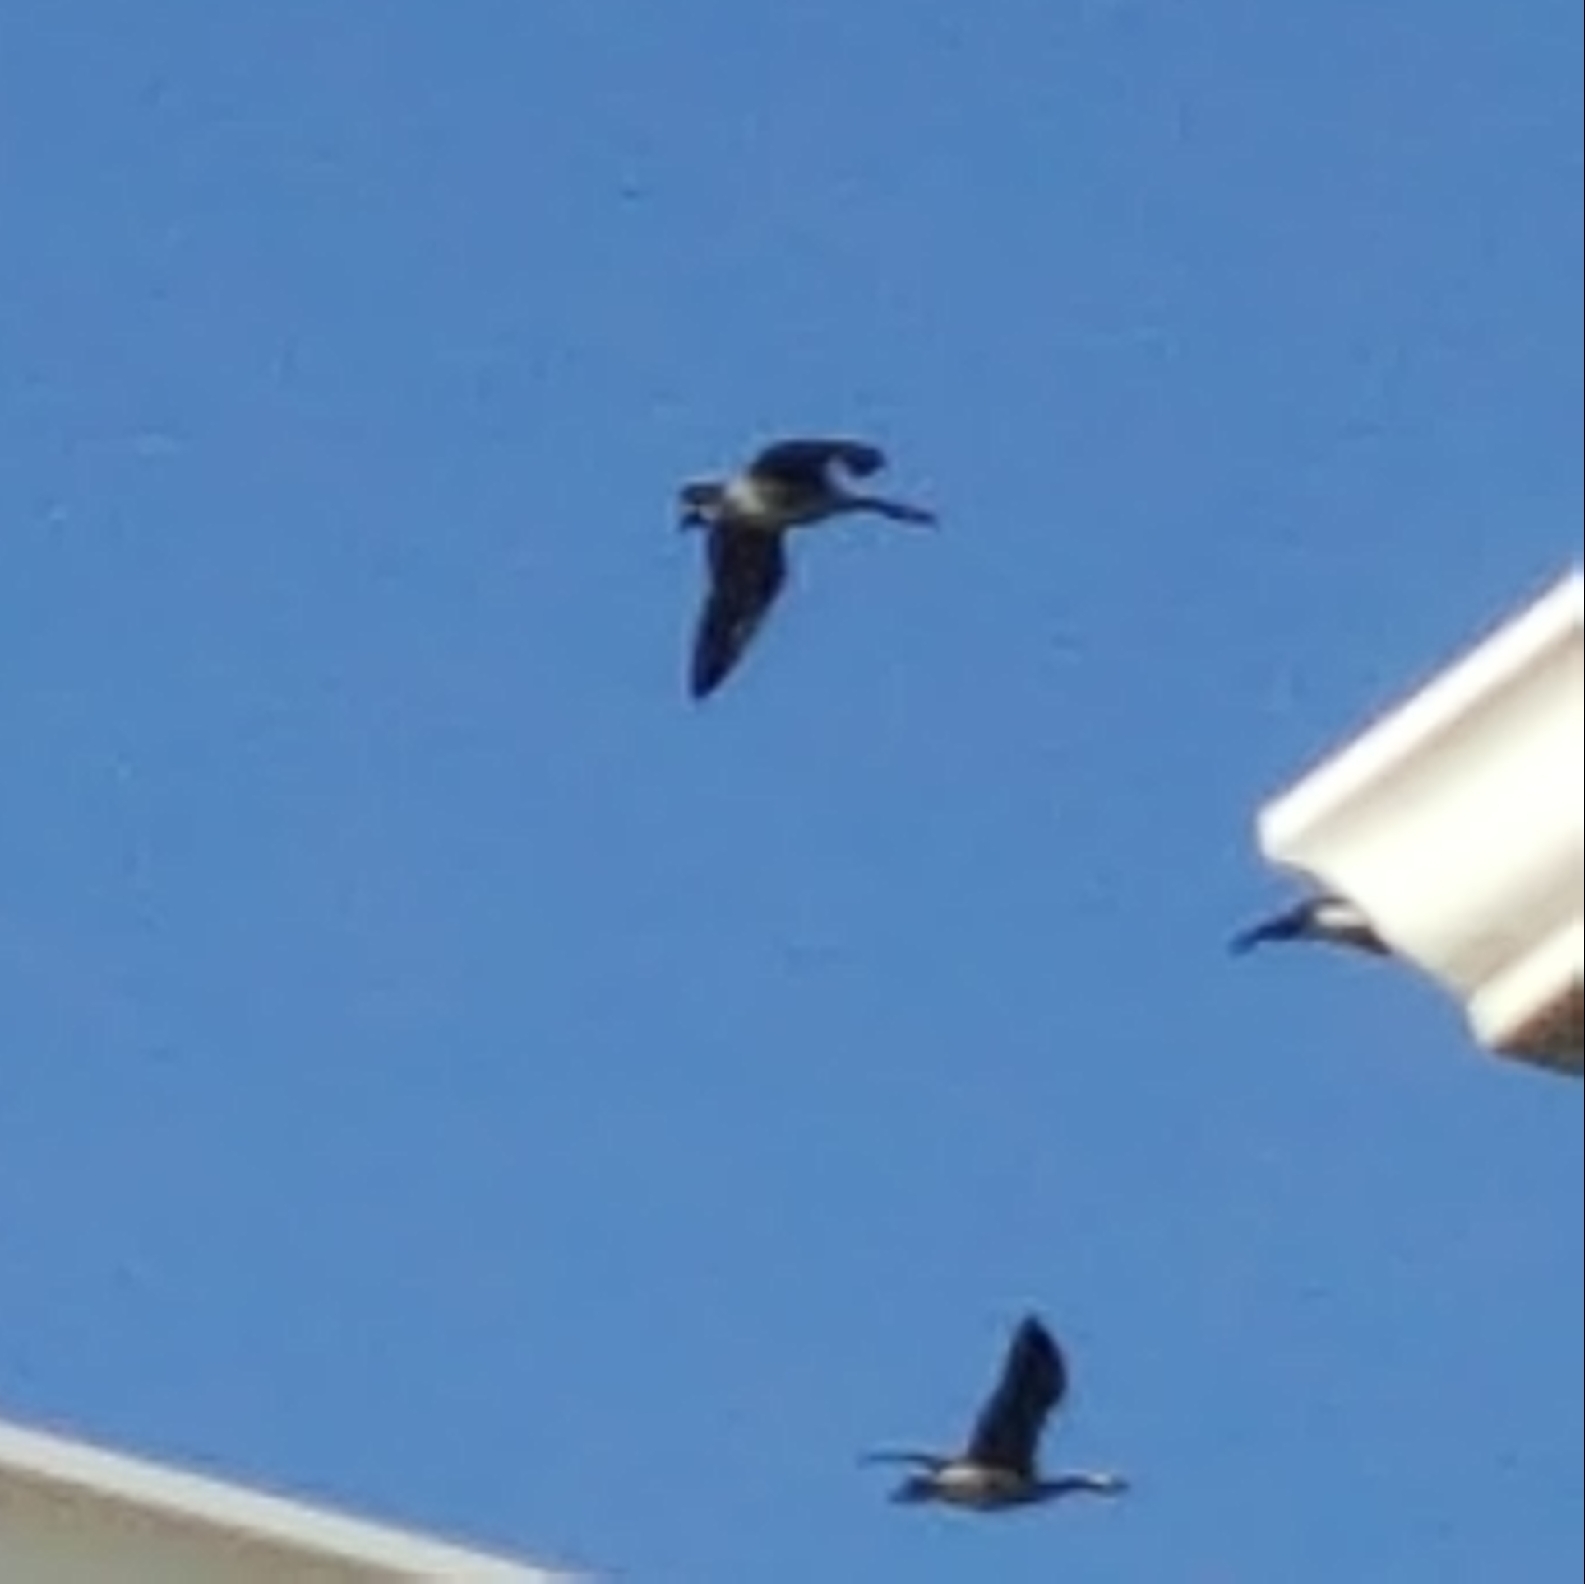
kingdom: Animalia
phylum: Chordata
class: Aves
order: Anseriformes
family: Anatidae
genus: Branta
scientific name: Branta canadensis
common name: Canada goose
